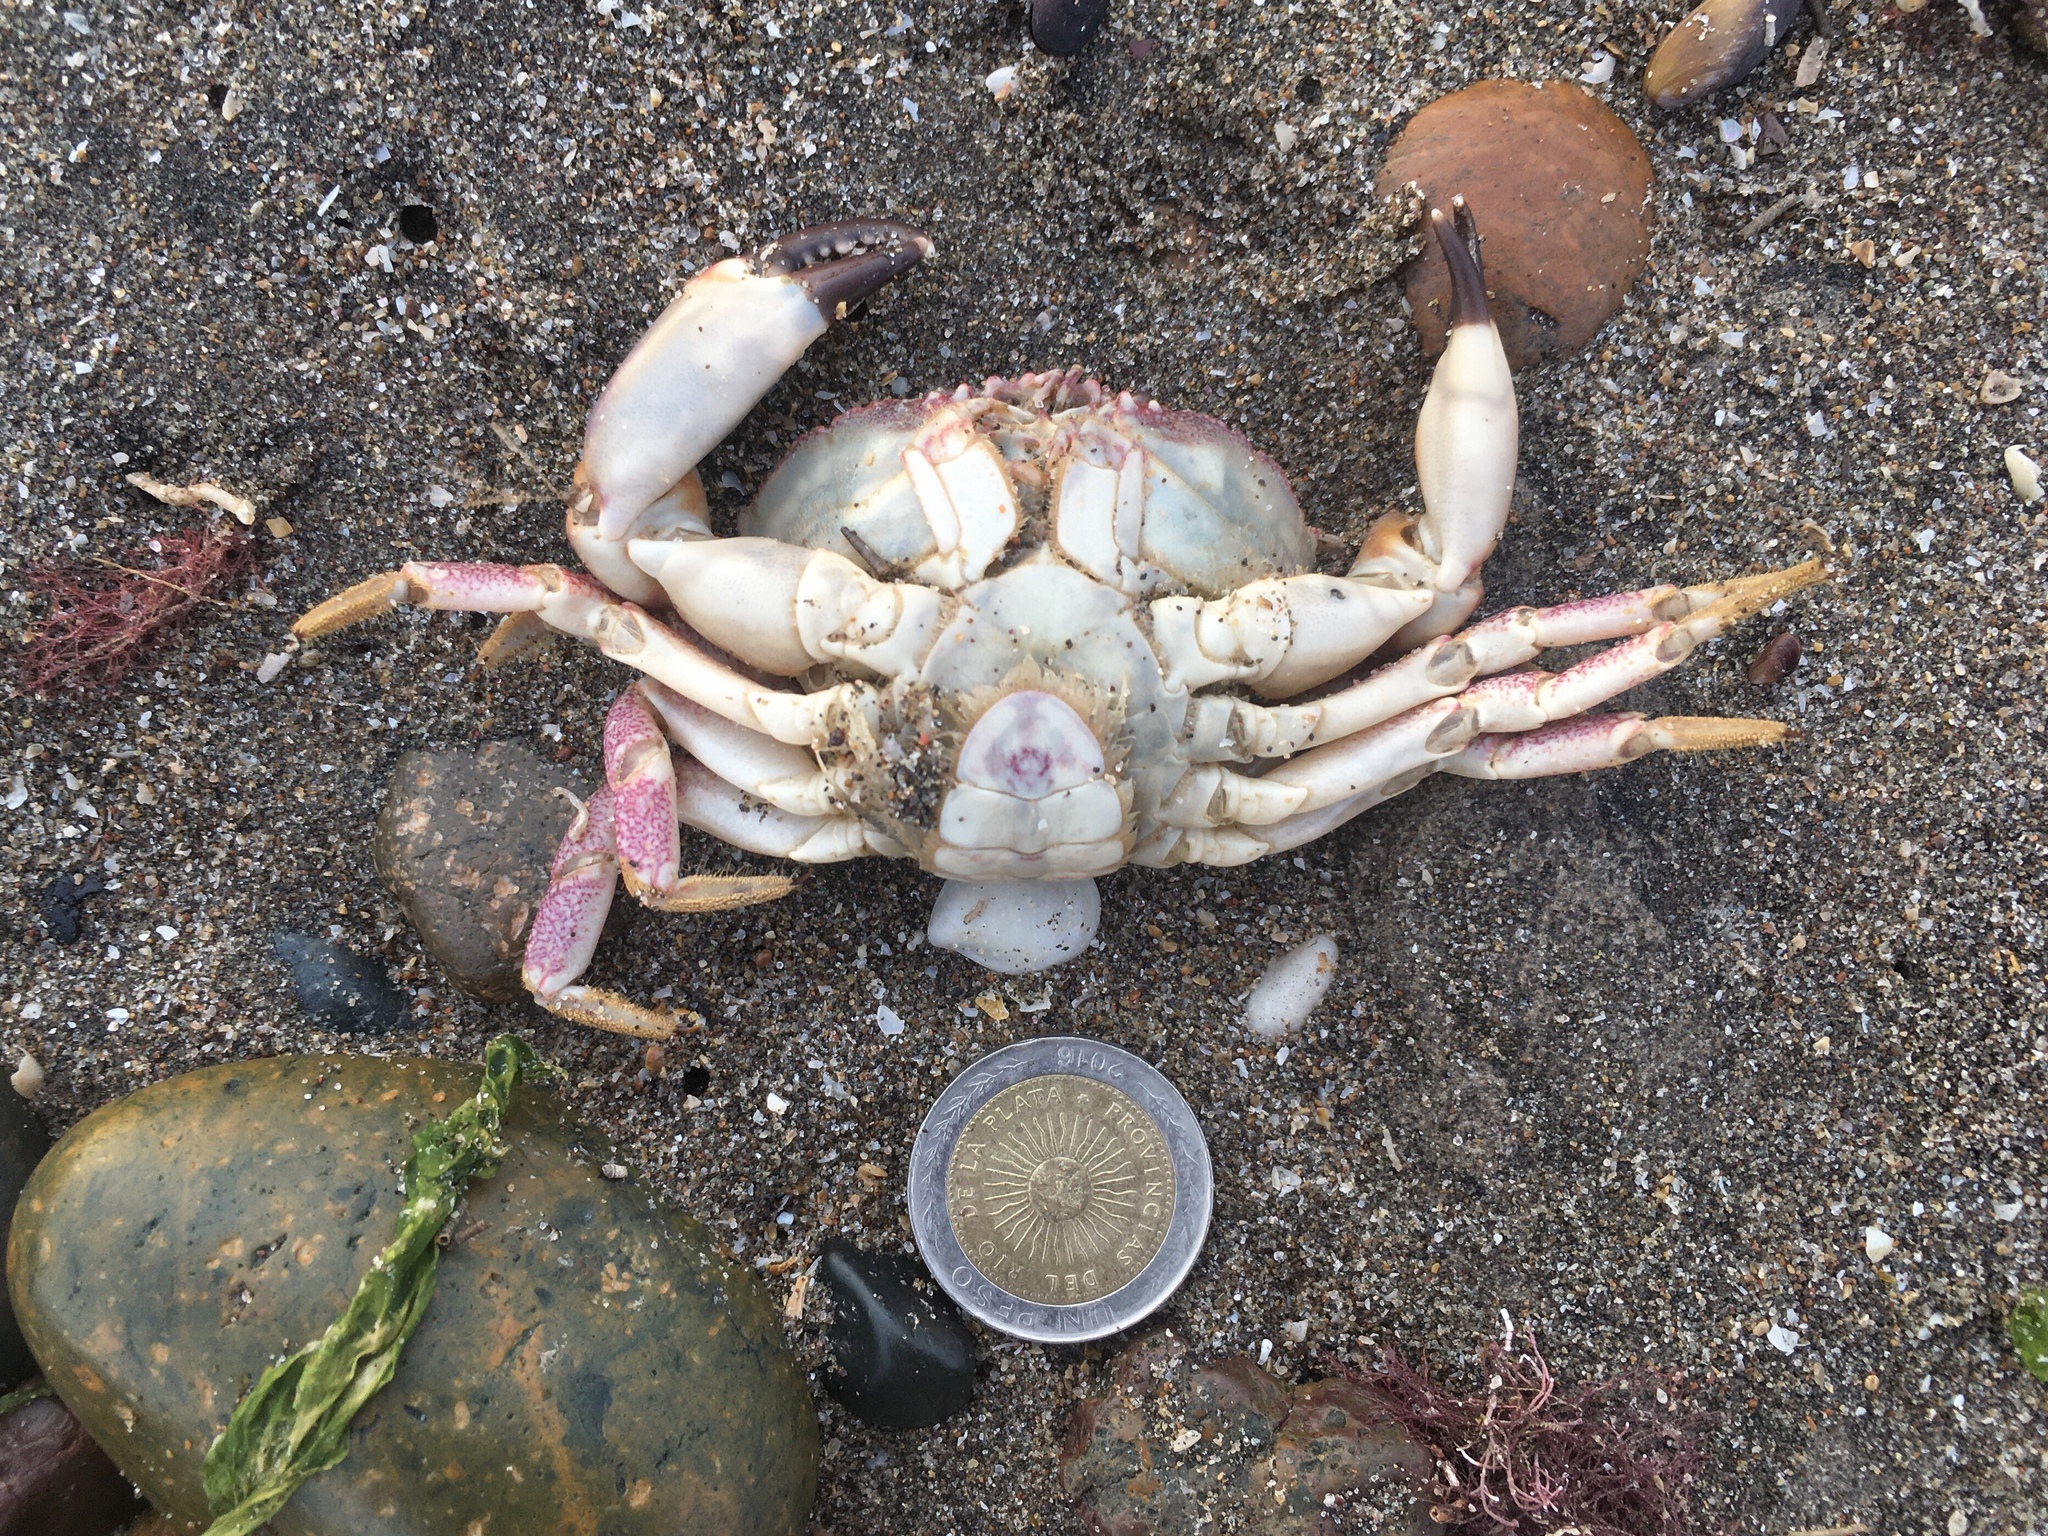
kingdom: Animalia
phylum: Arthropoda
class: Malacostraca
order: Decapoda
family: Platyxanthidae
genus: Danielethus
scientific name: Danielethus crenulatus
